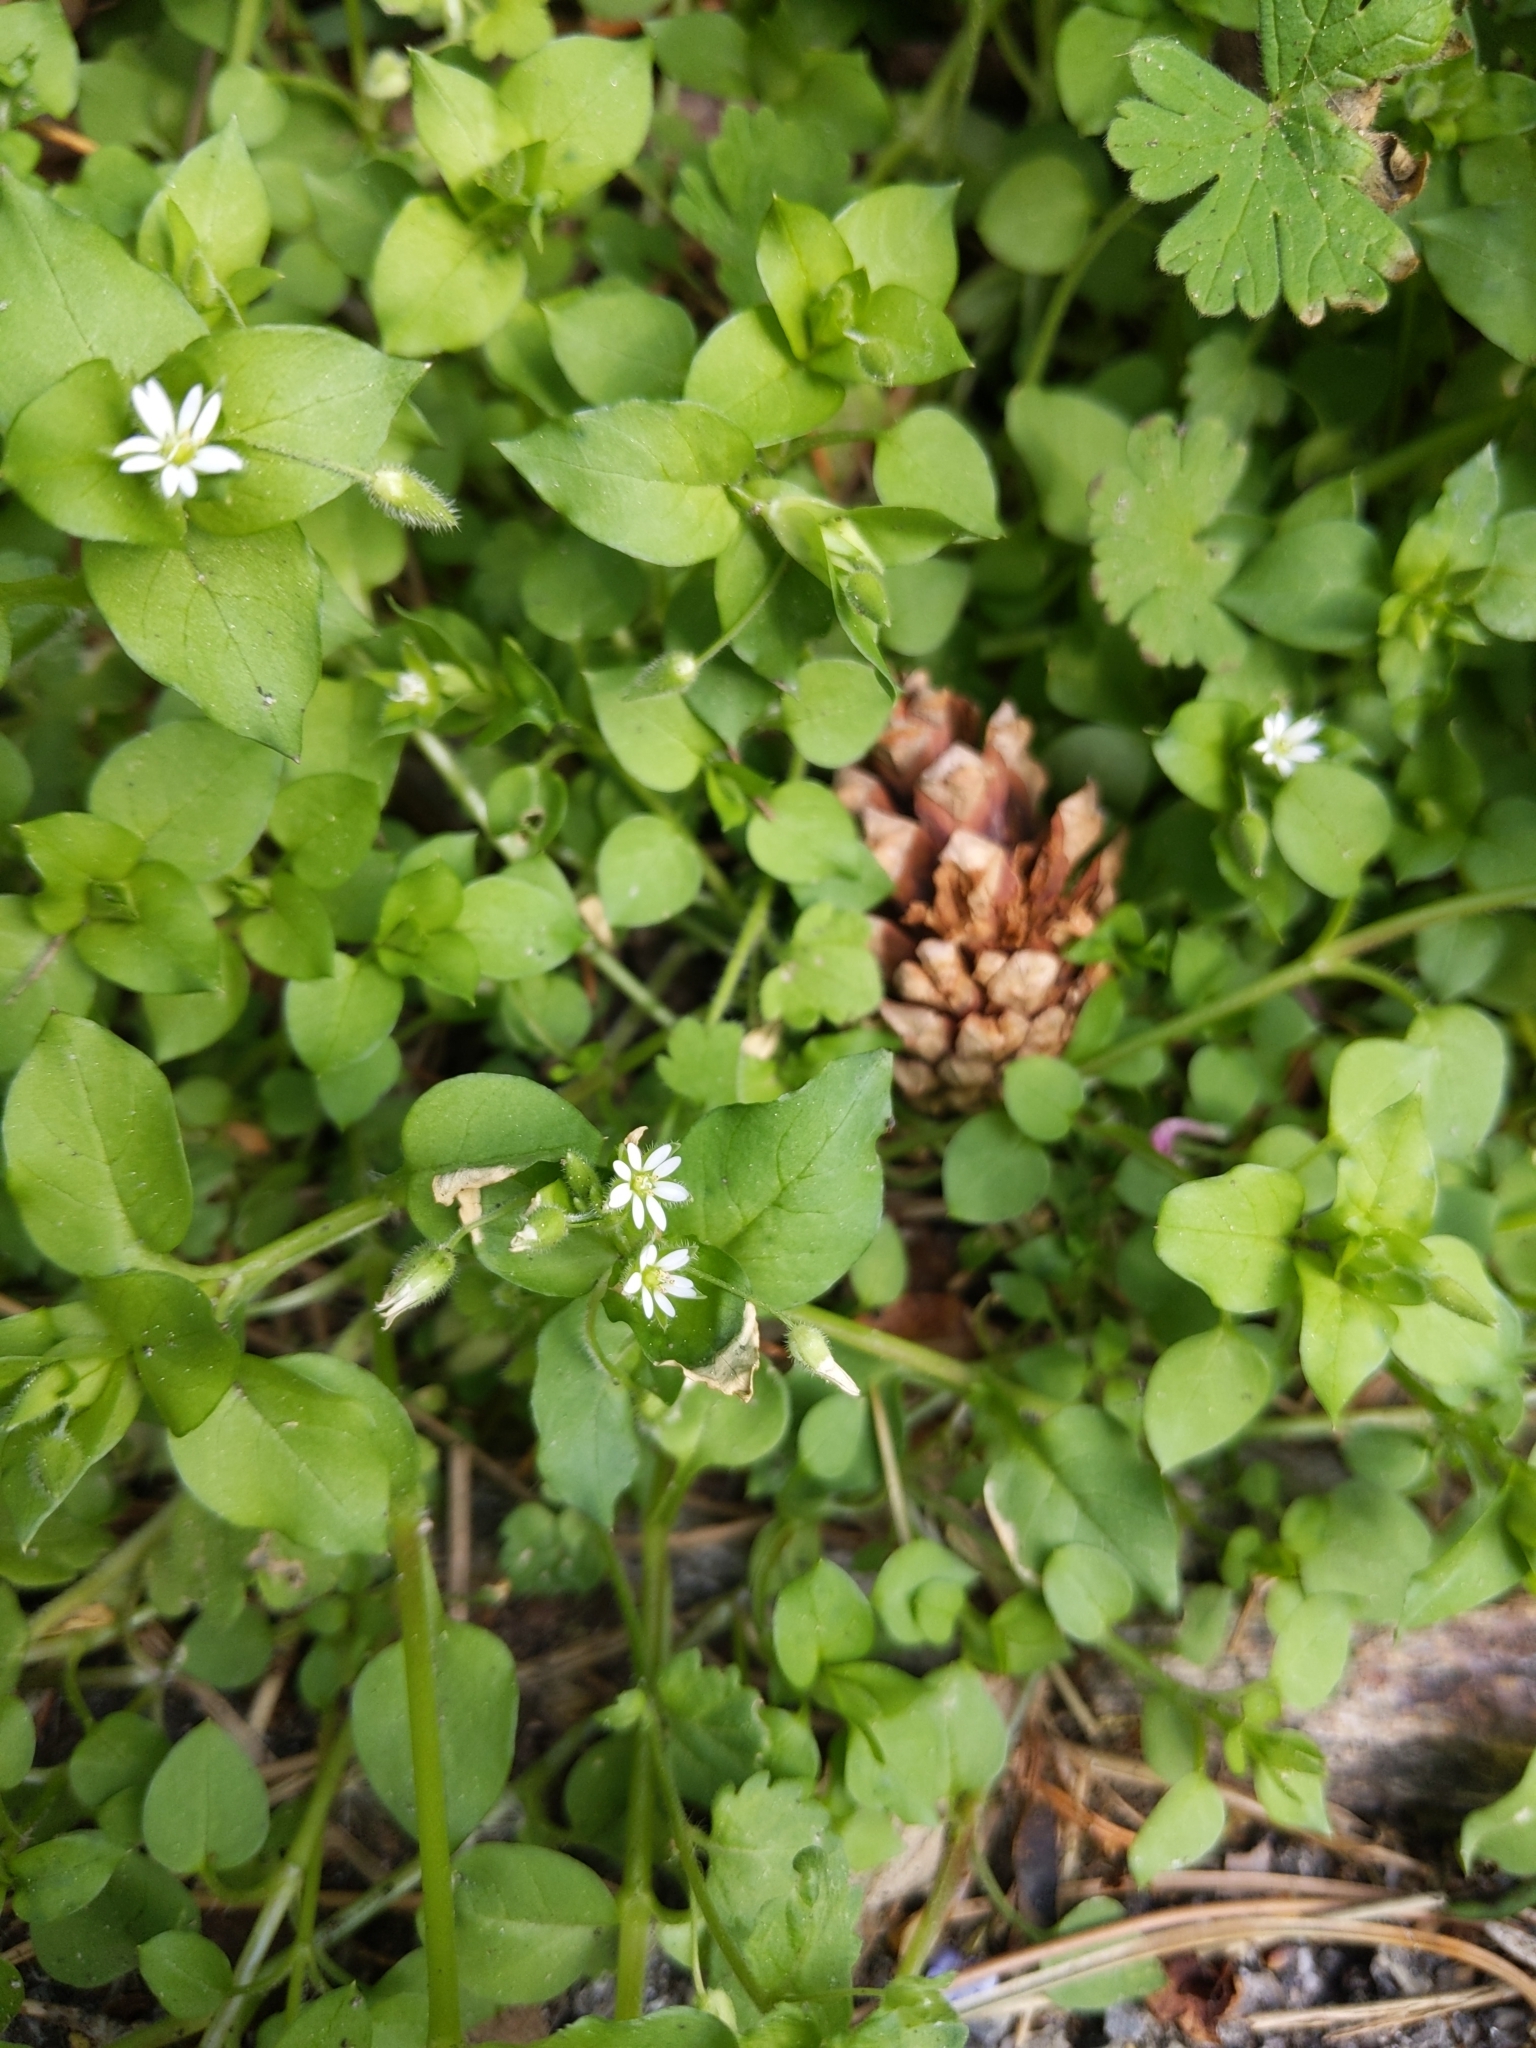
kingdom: Plantae
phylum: Tracheophyta
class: Magnoliopsida
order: Caryophyllales
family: Caryophyllaceae
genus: Stellaria
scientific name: Stellaria aquatica
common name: Water chickweed
